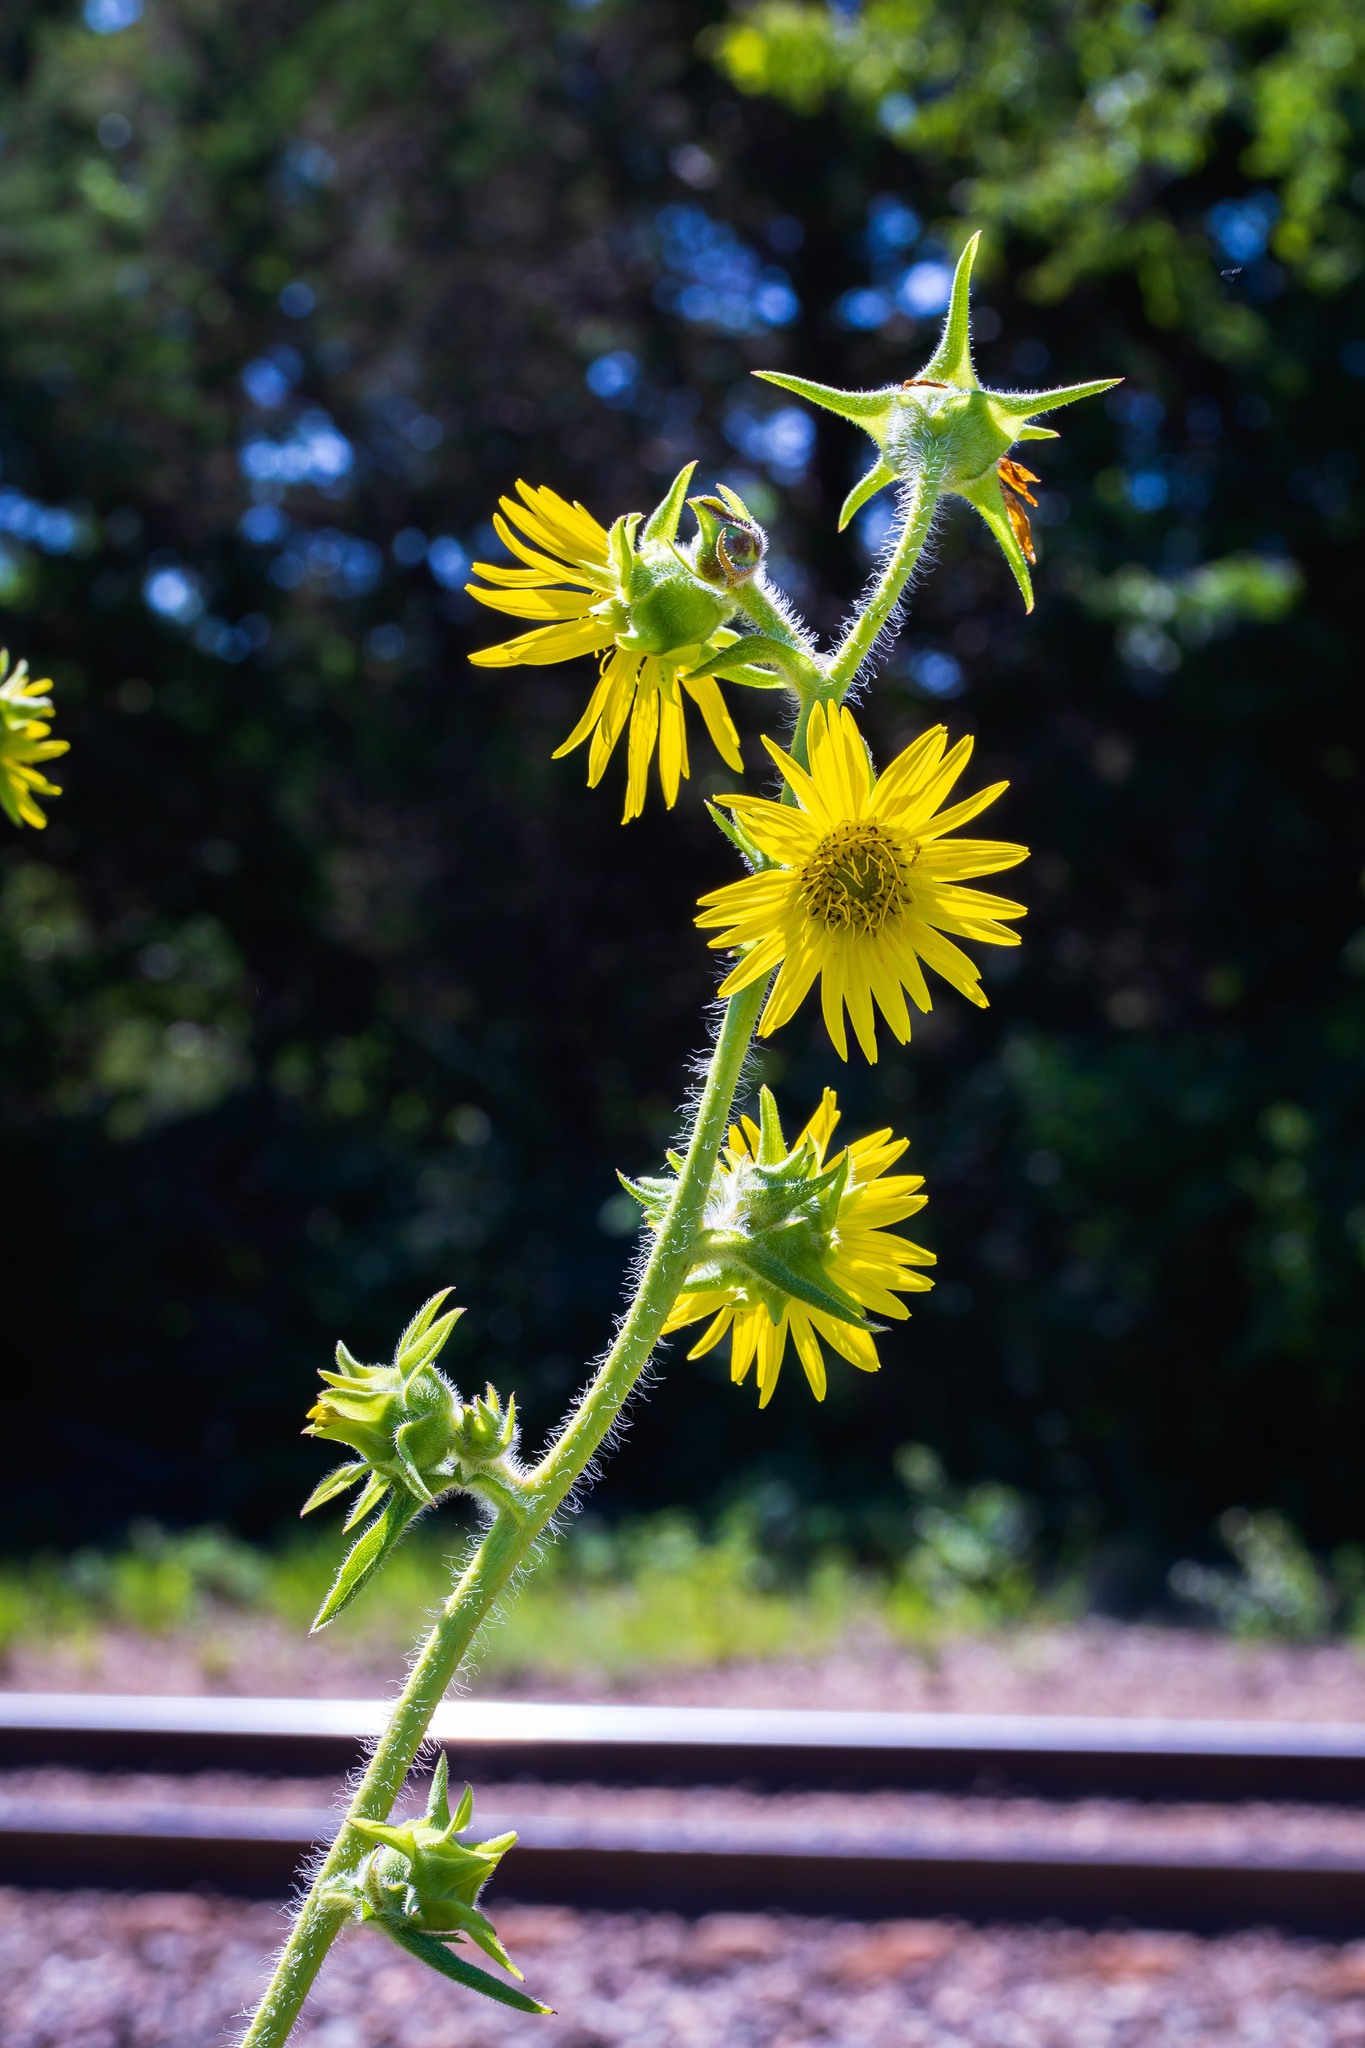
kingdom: Plantae
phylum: Tracheophyta
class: Magnoliopsida
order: Asterales
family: Asteraceae
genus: Silphium
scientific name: Silphium laciniatum
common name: Polarplant
